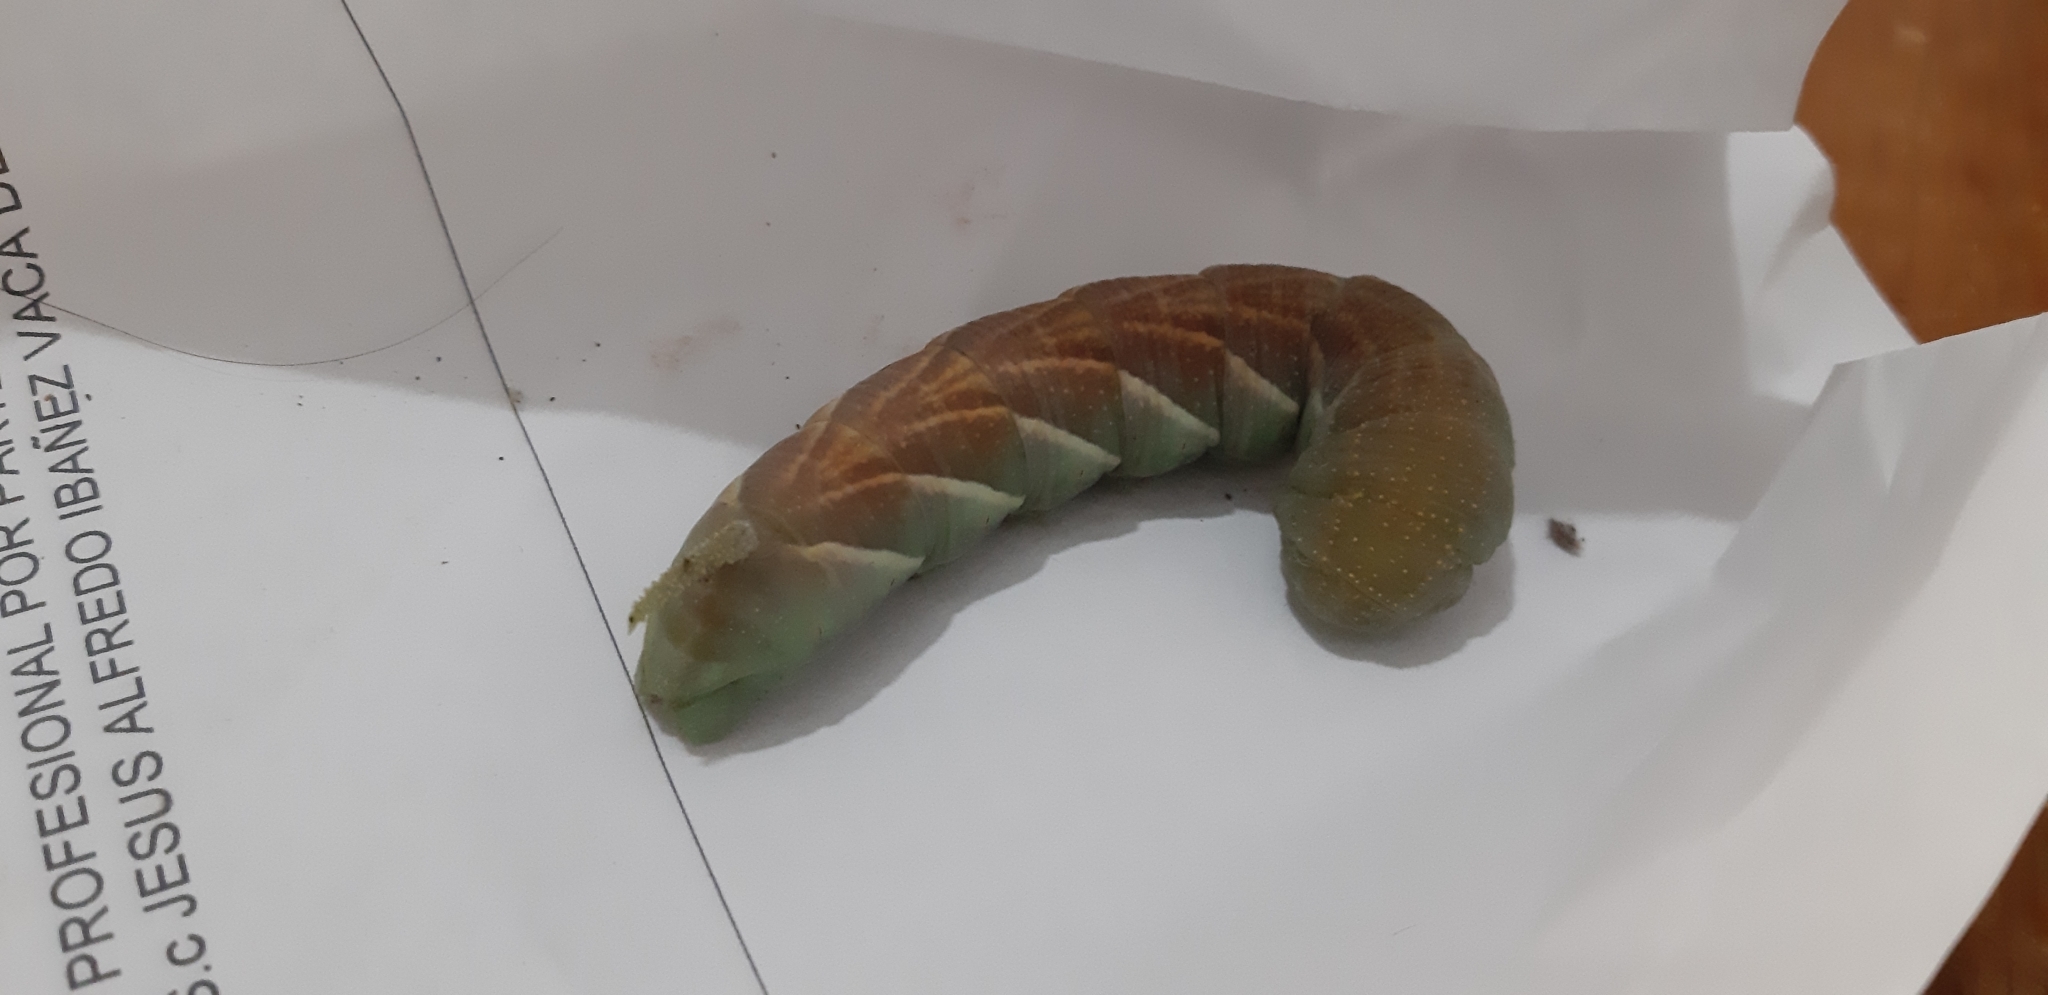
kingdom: Animalia
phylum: Arthropoda
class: Insecta
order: Lepidoptera
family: Sphingidae
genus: Manduca
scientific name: Manduca rustica
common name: Rustic sphinx
